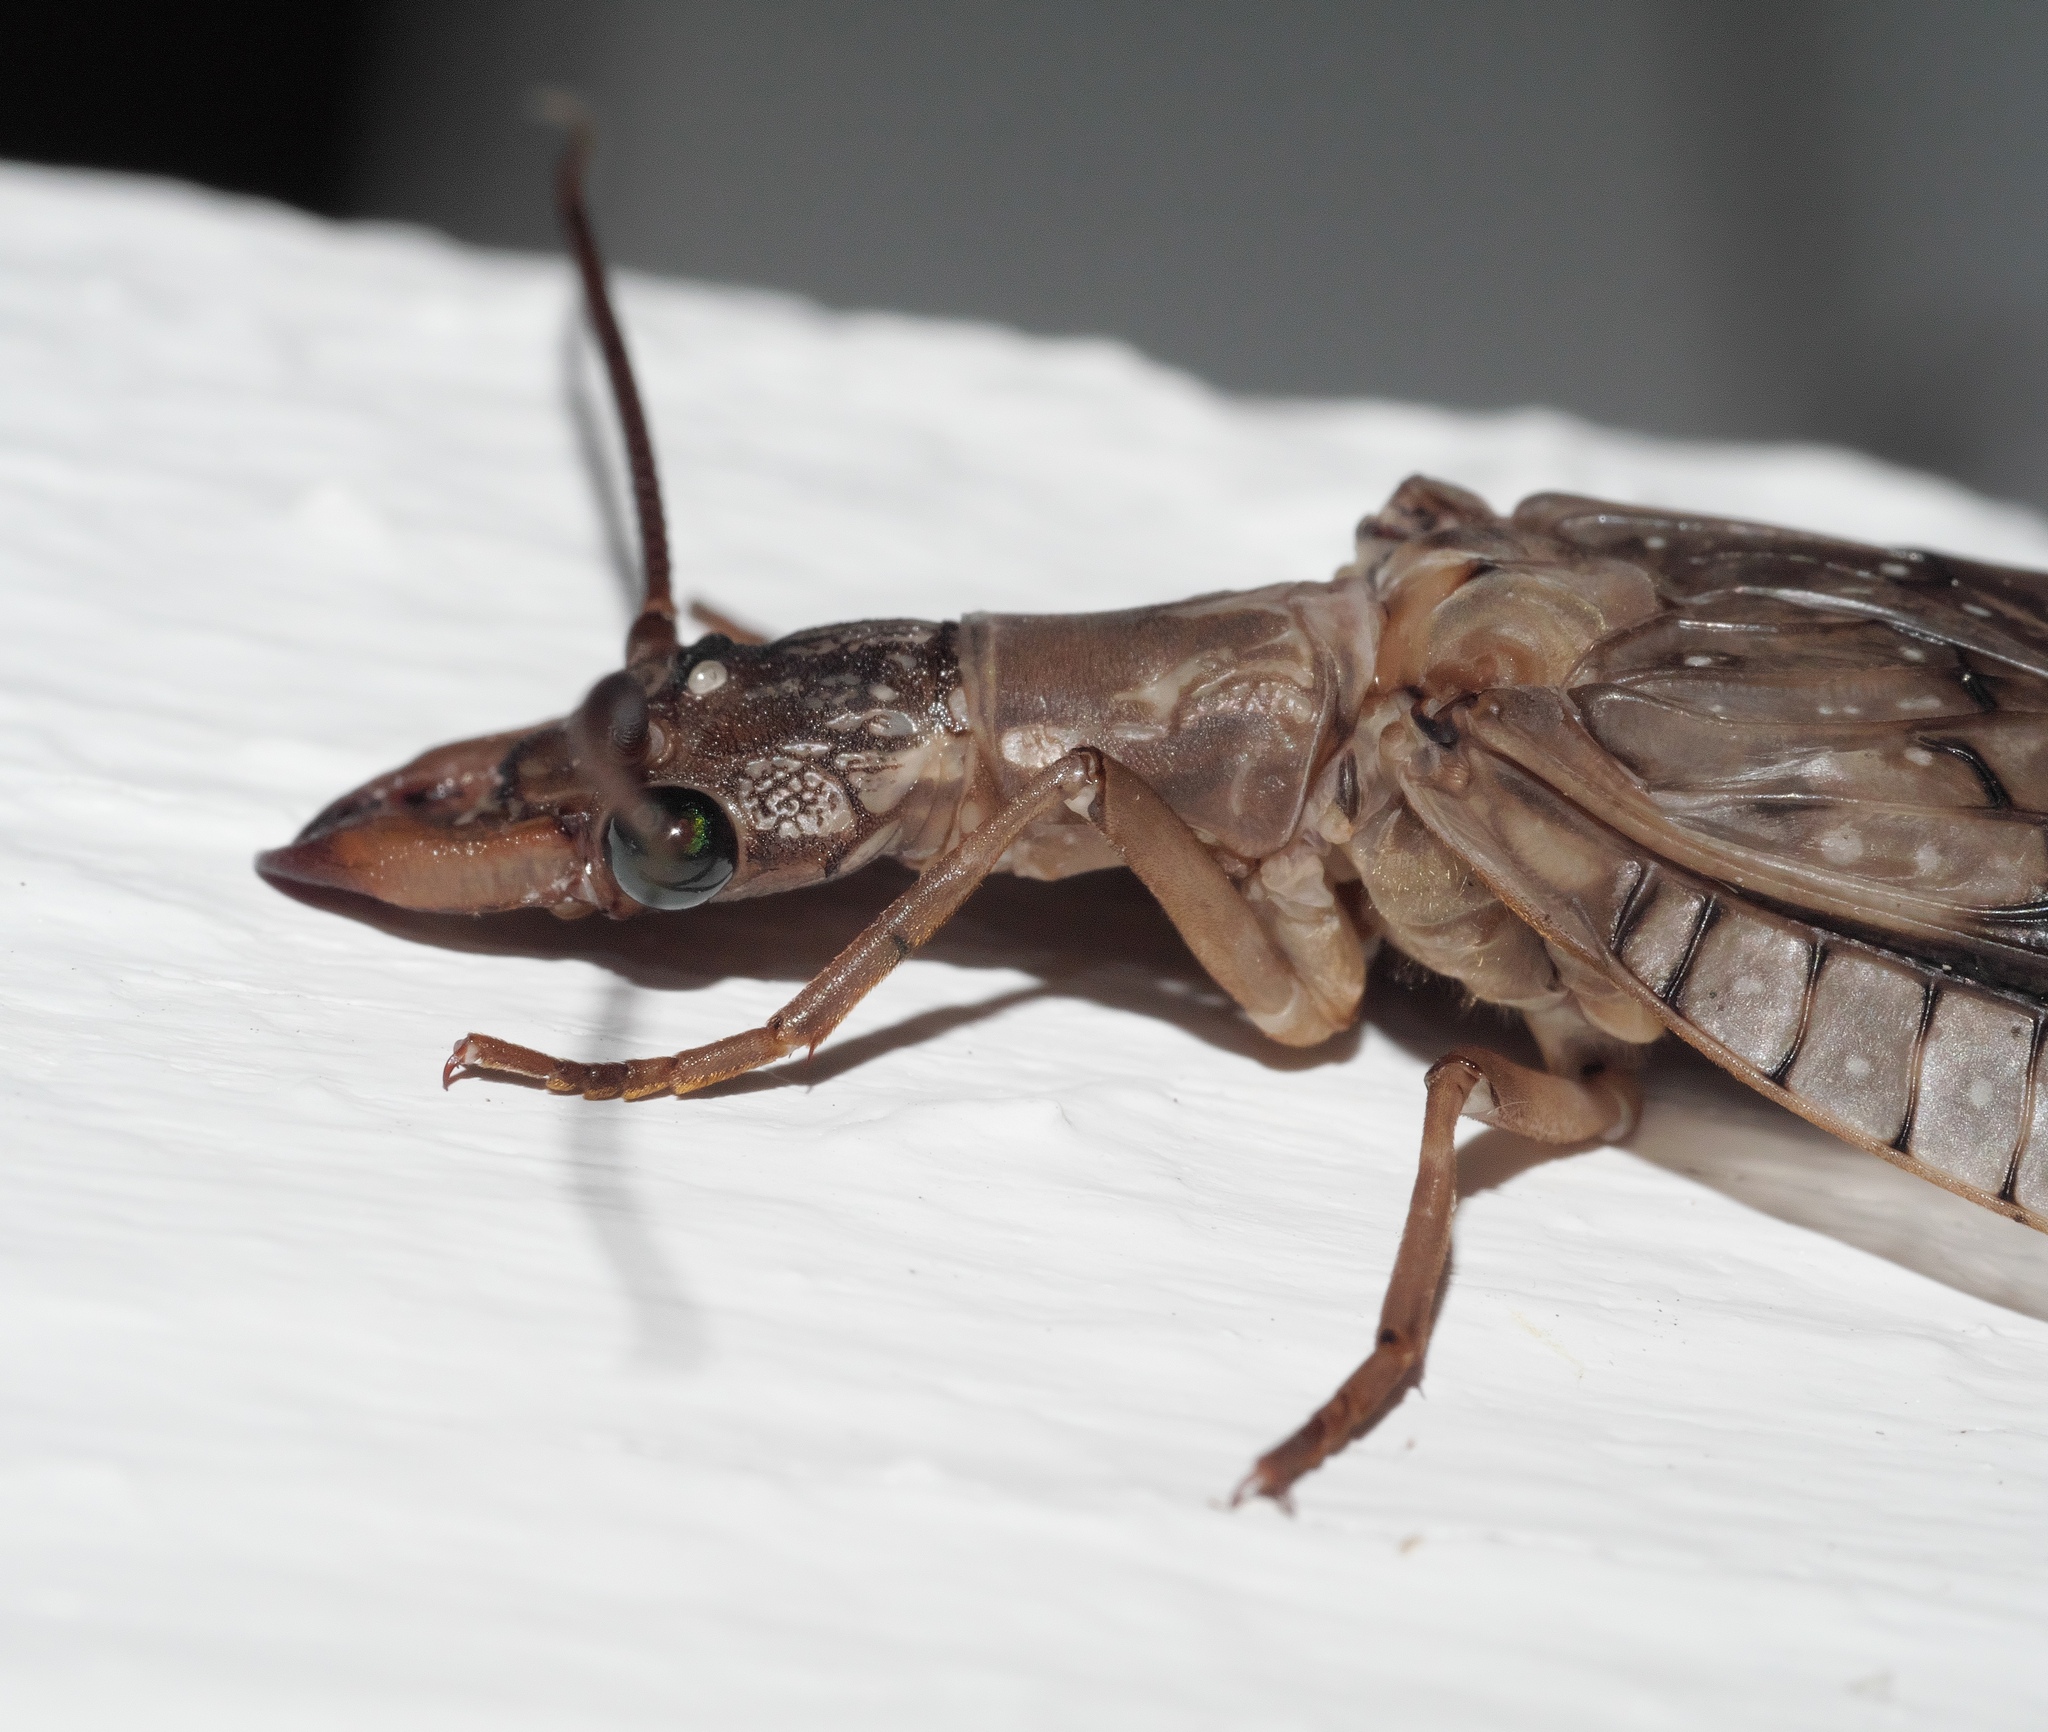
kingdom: Animalia
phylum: Arthropoda
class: Insecta
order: Megaloptera
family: Corydalidae
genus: Corydalus
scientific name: Corydalus cornutus
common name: Dobsonfly
